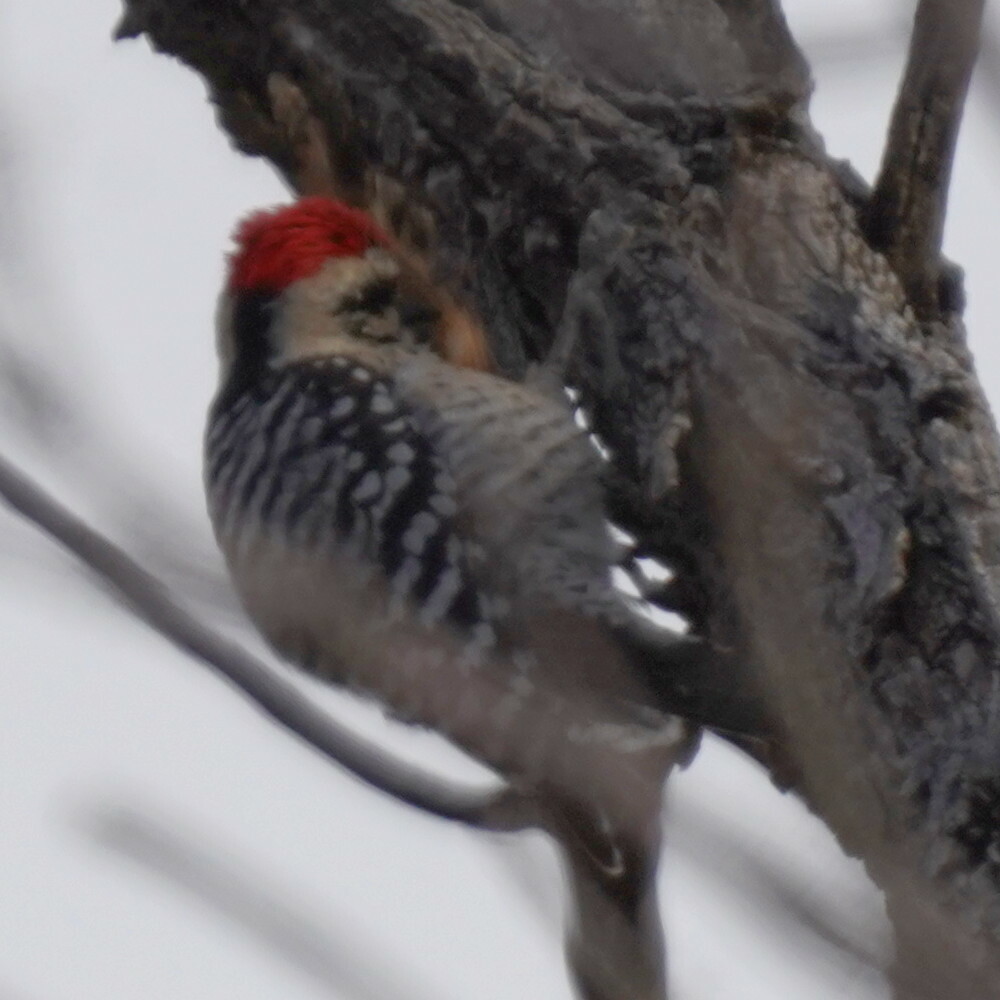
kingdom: Animalia
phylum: Chordata
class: Aves
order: Piciformes
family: Picidae
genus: Dryobates
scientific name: Dryobates scalaris
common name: Ladder-backed woodpecker
